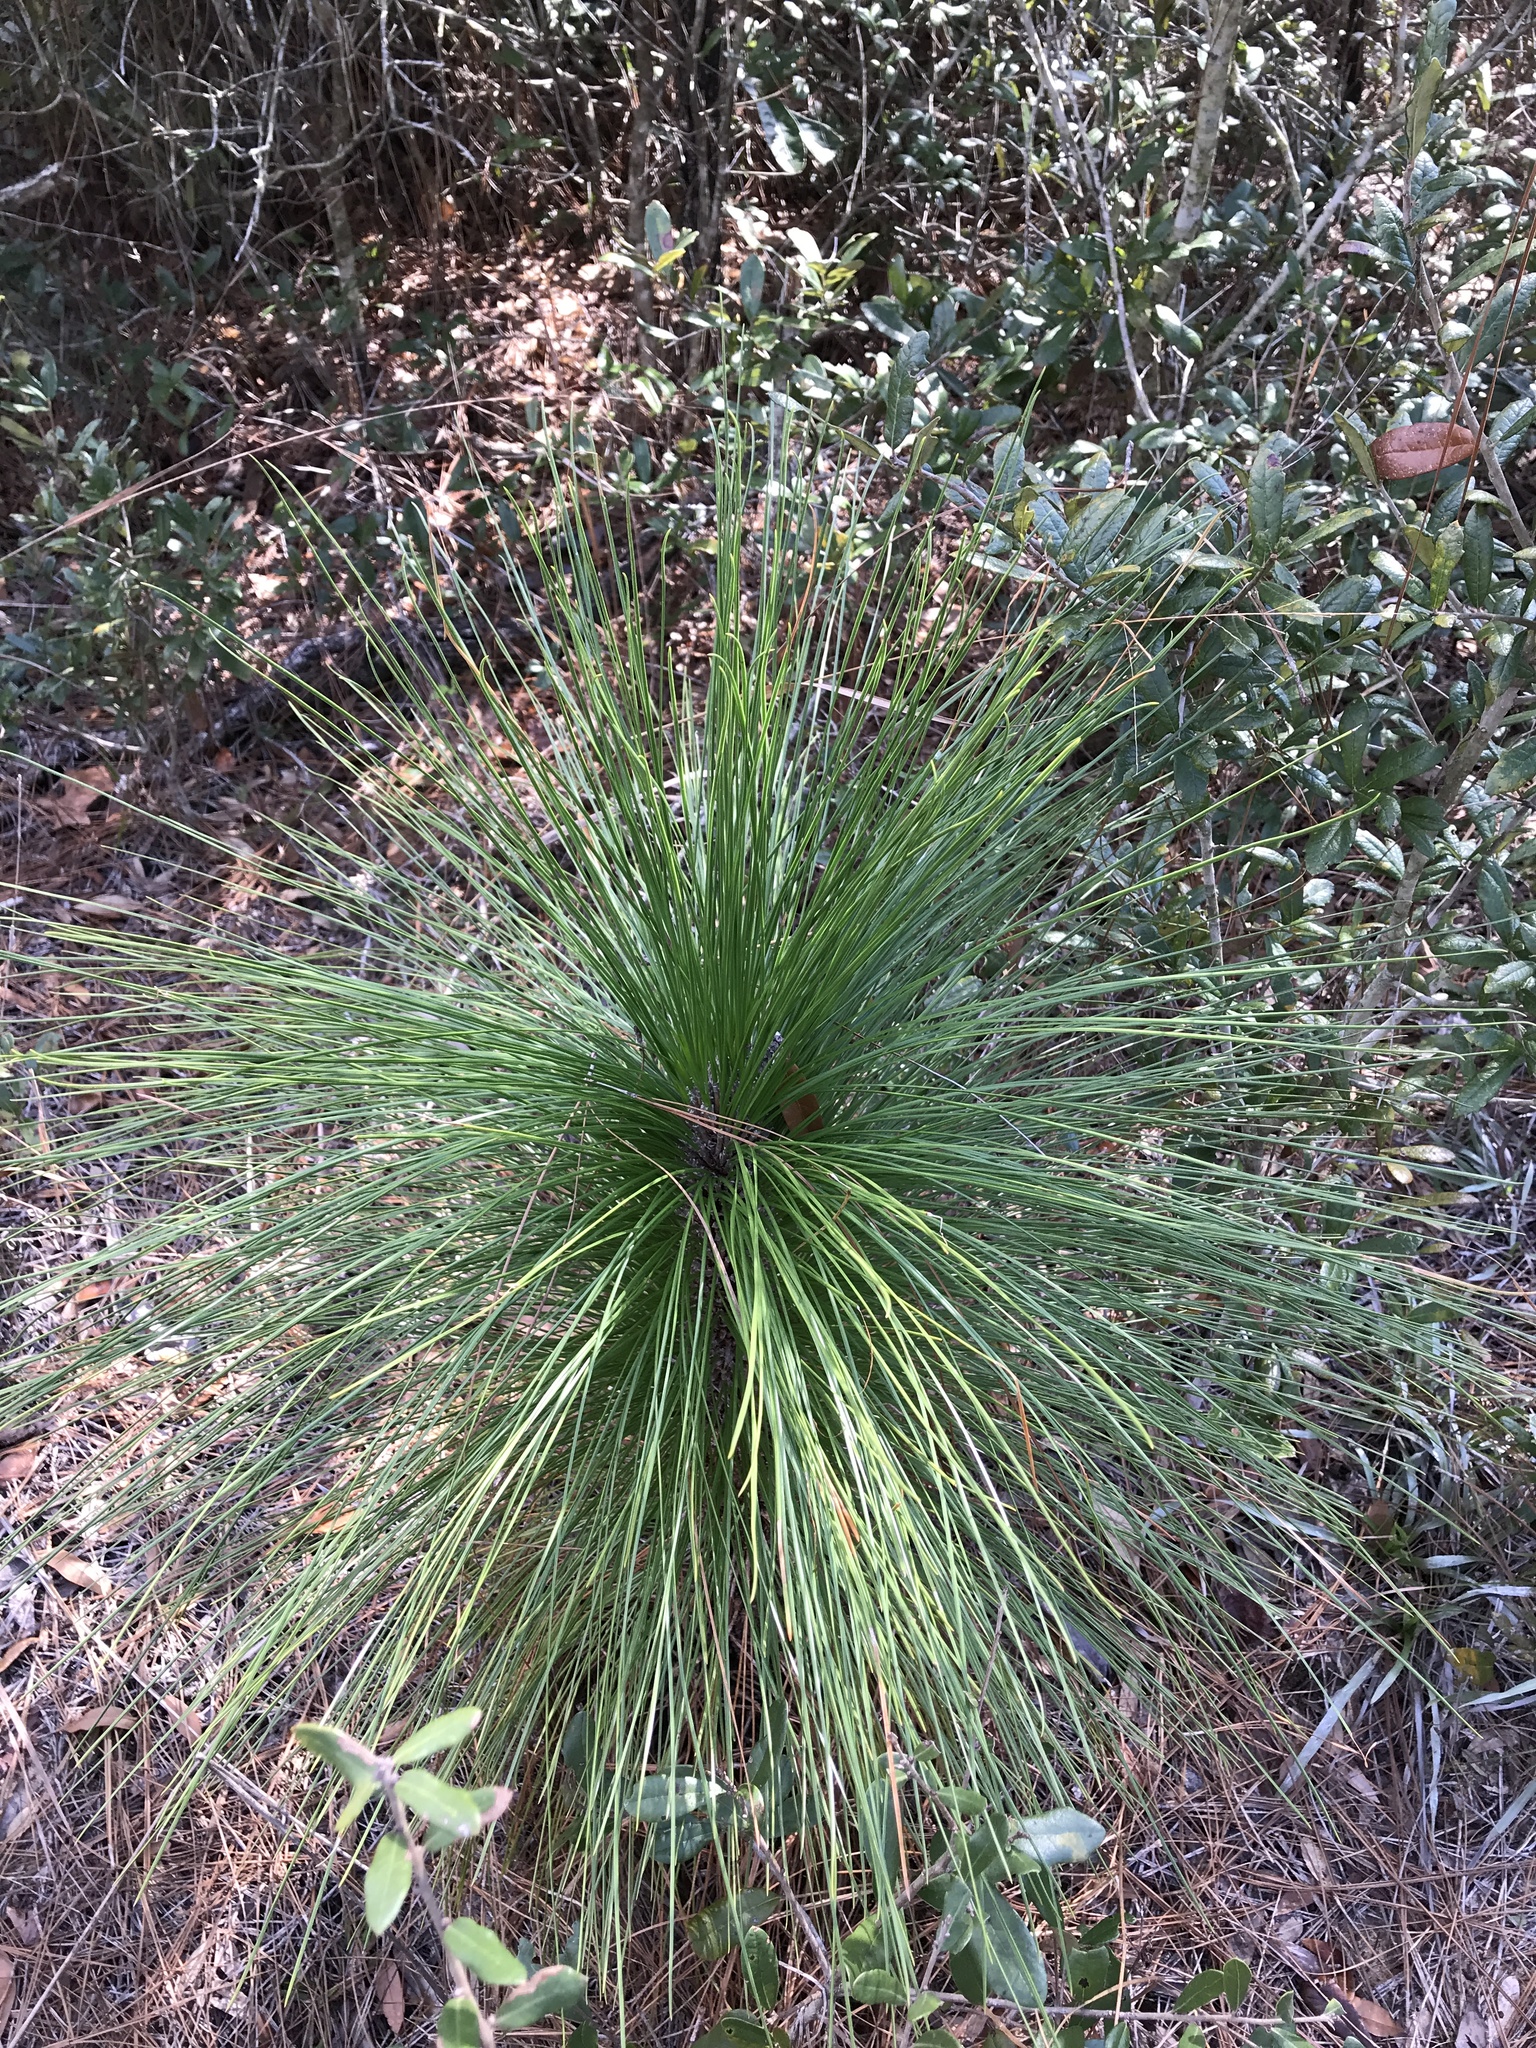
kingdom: Plantae
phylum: Tracheophyta
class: Pinopsida
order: Pinales
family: Pinaceae
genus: Pinus
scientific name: Pinus palustris
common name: Longleaf pine
